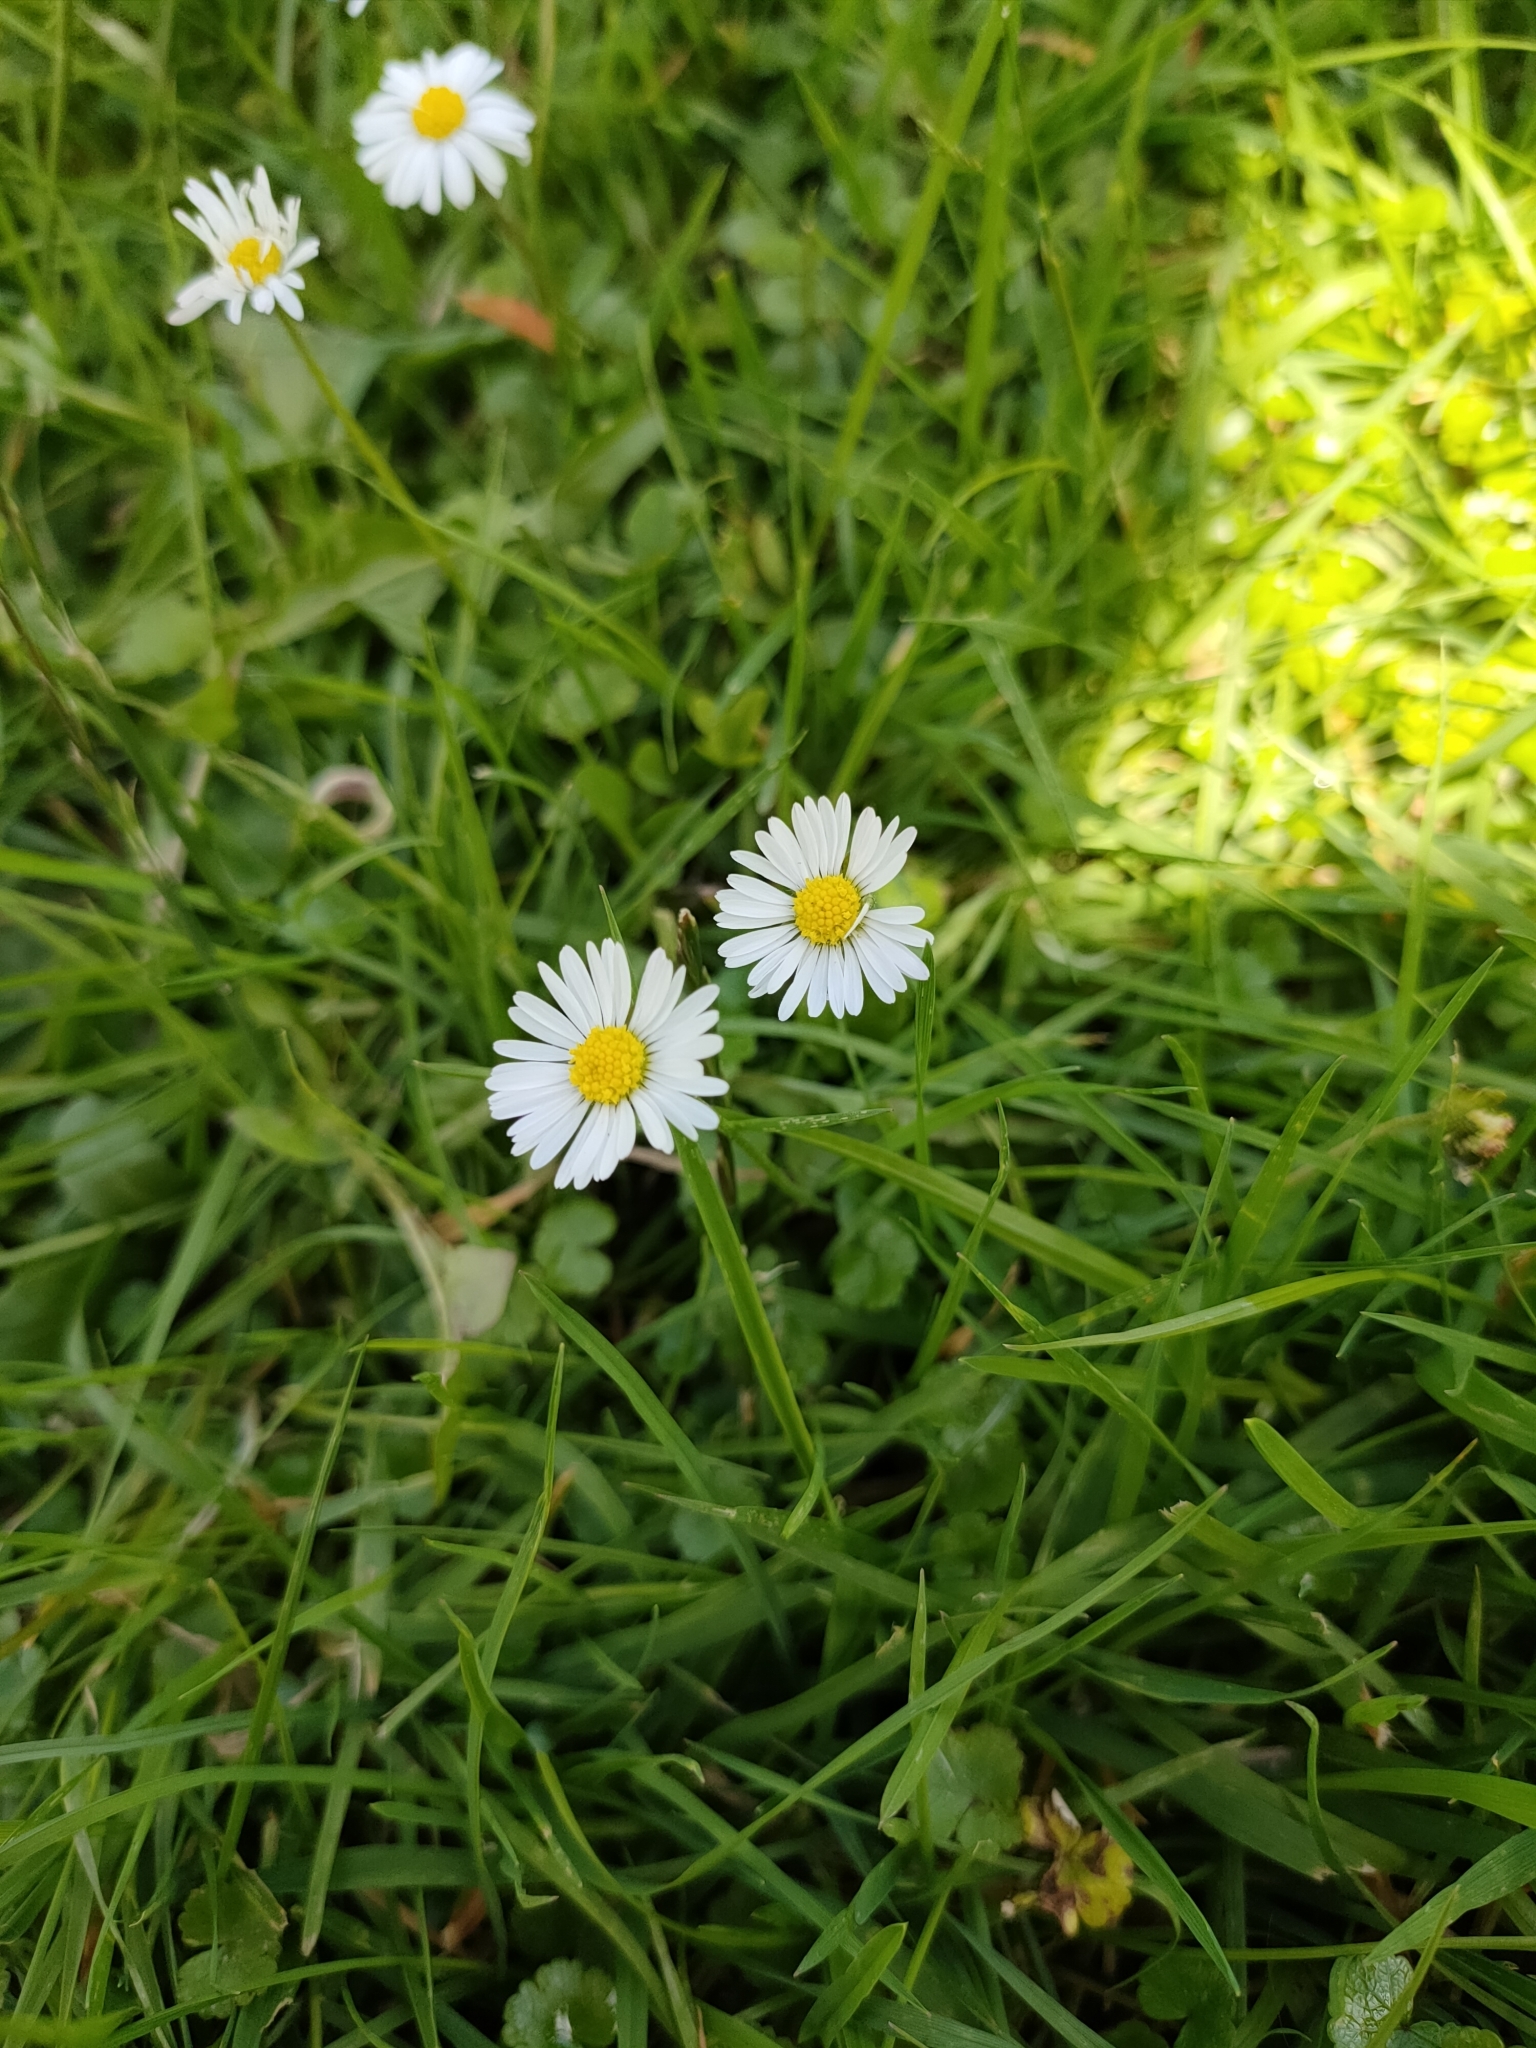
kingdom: Plantae
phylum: Tracheophyta
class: Magnoliopsida
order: Asterales
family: Asteraceae
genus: Bellis
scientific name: Bellis perennis
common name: Lawndaisy
